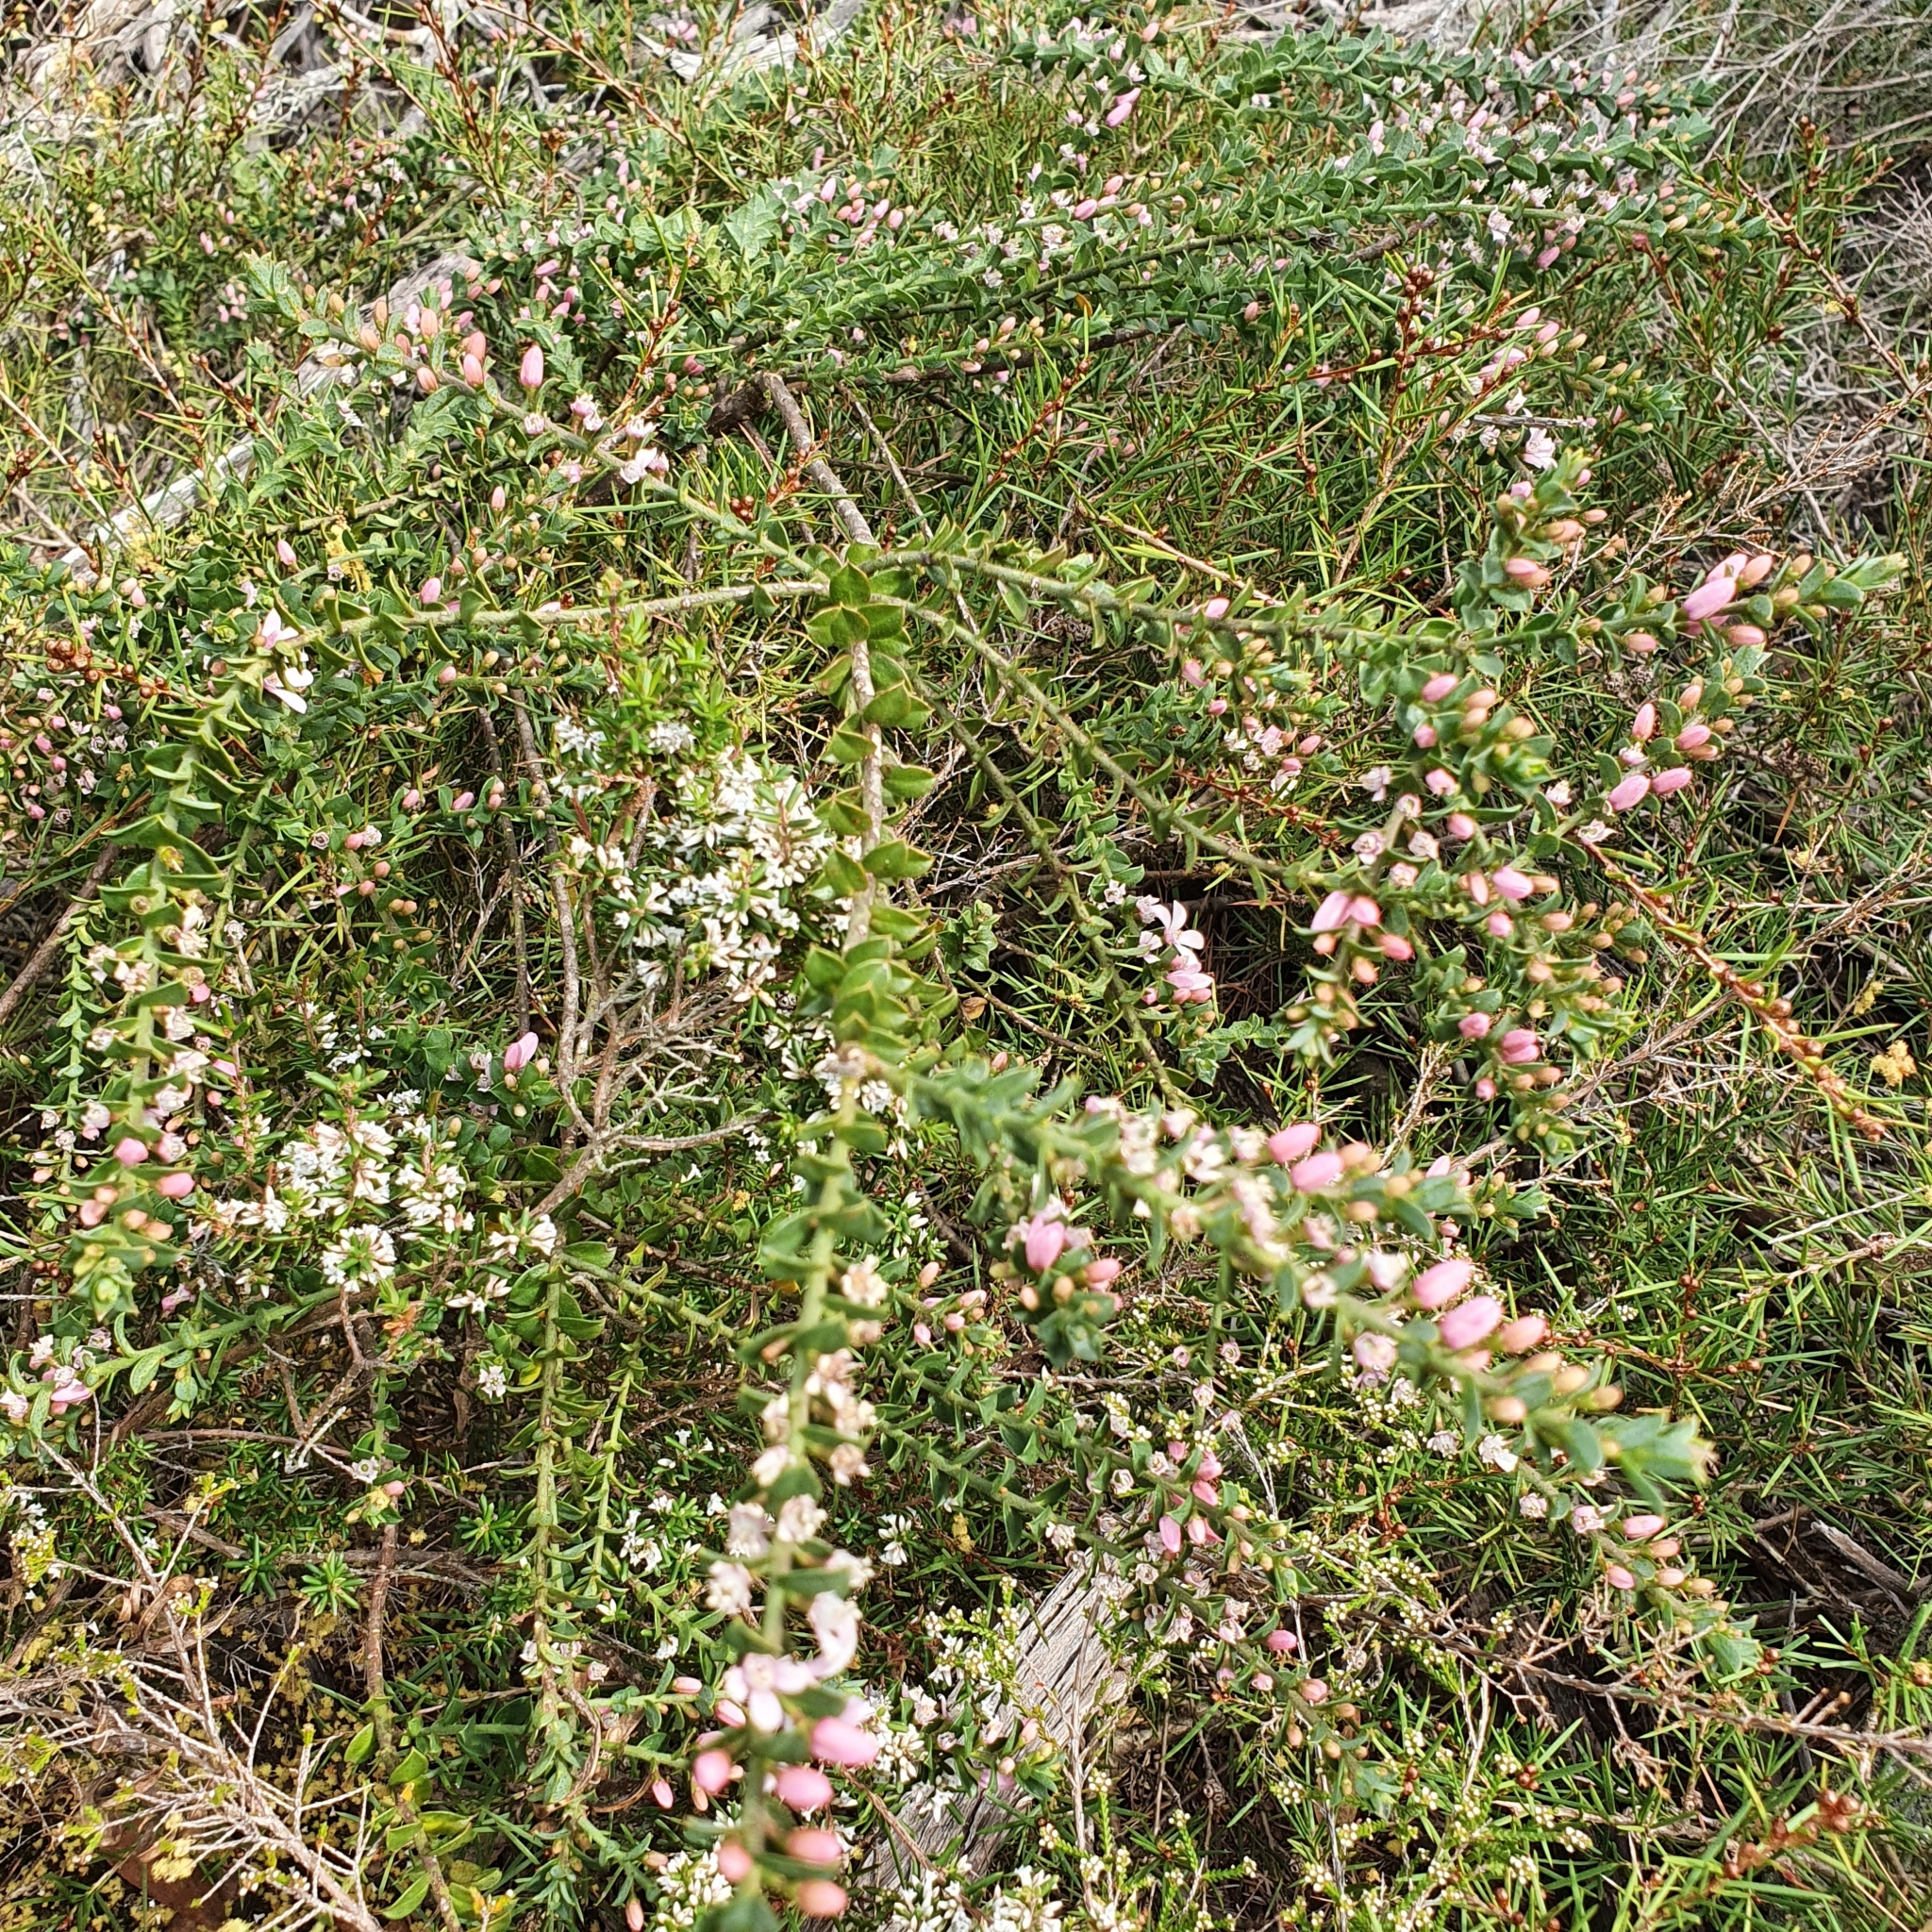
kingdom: Plantae
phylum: Tracheophyta
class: Magnoliopsida
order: Sapindales
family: Rutaceae
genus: Philotheca
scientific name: Philotheca buxifolia
